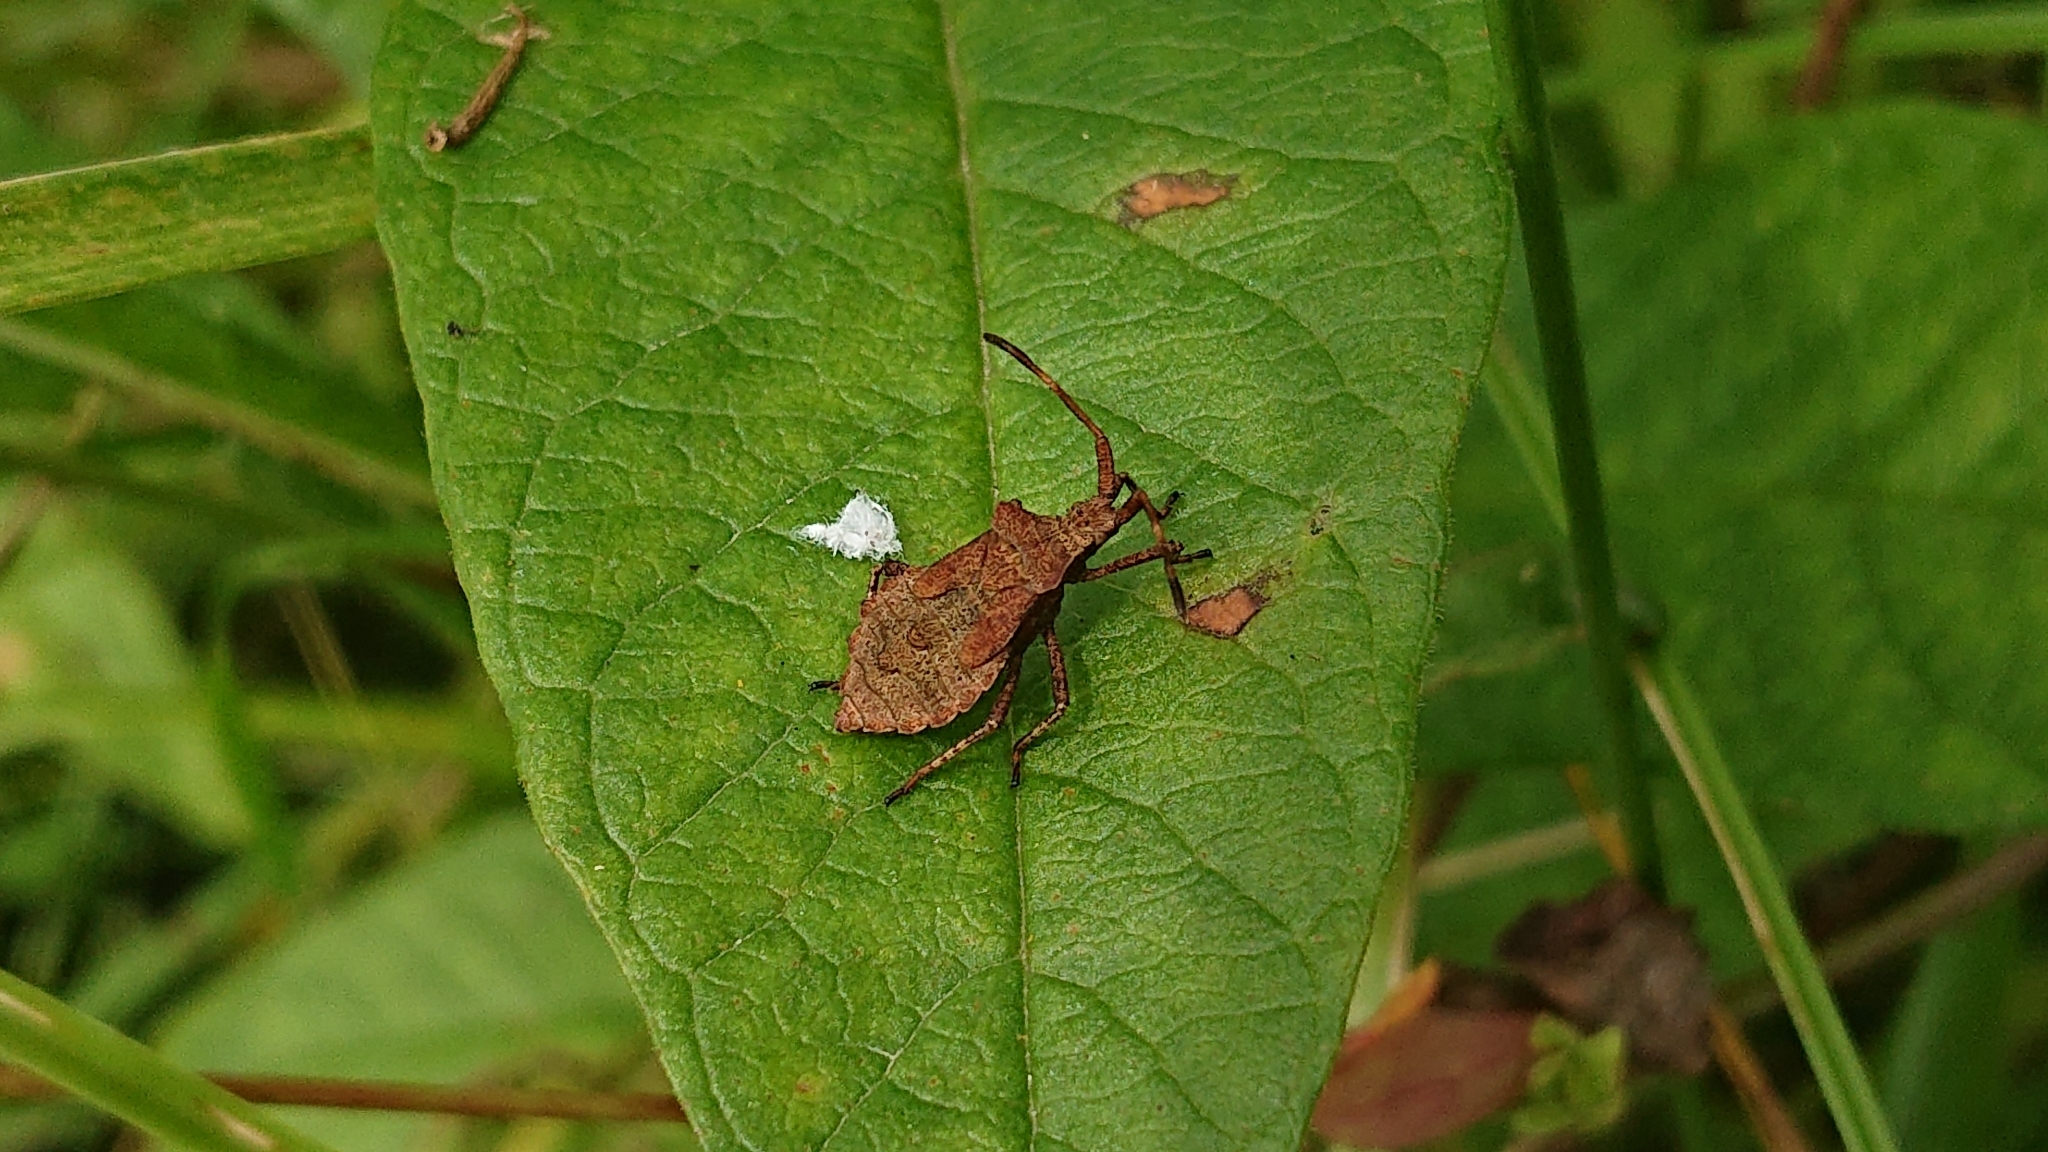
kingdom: Animalia
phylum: Arthropoda
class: Insecta
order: Hemiptera
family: Coreidae
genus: Coreus
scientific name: Coreus marginatus
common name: Dock bug
